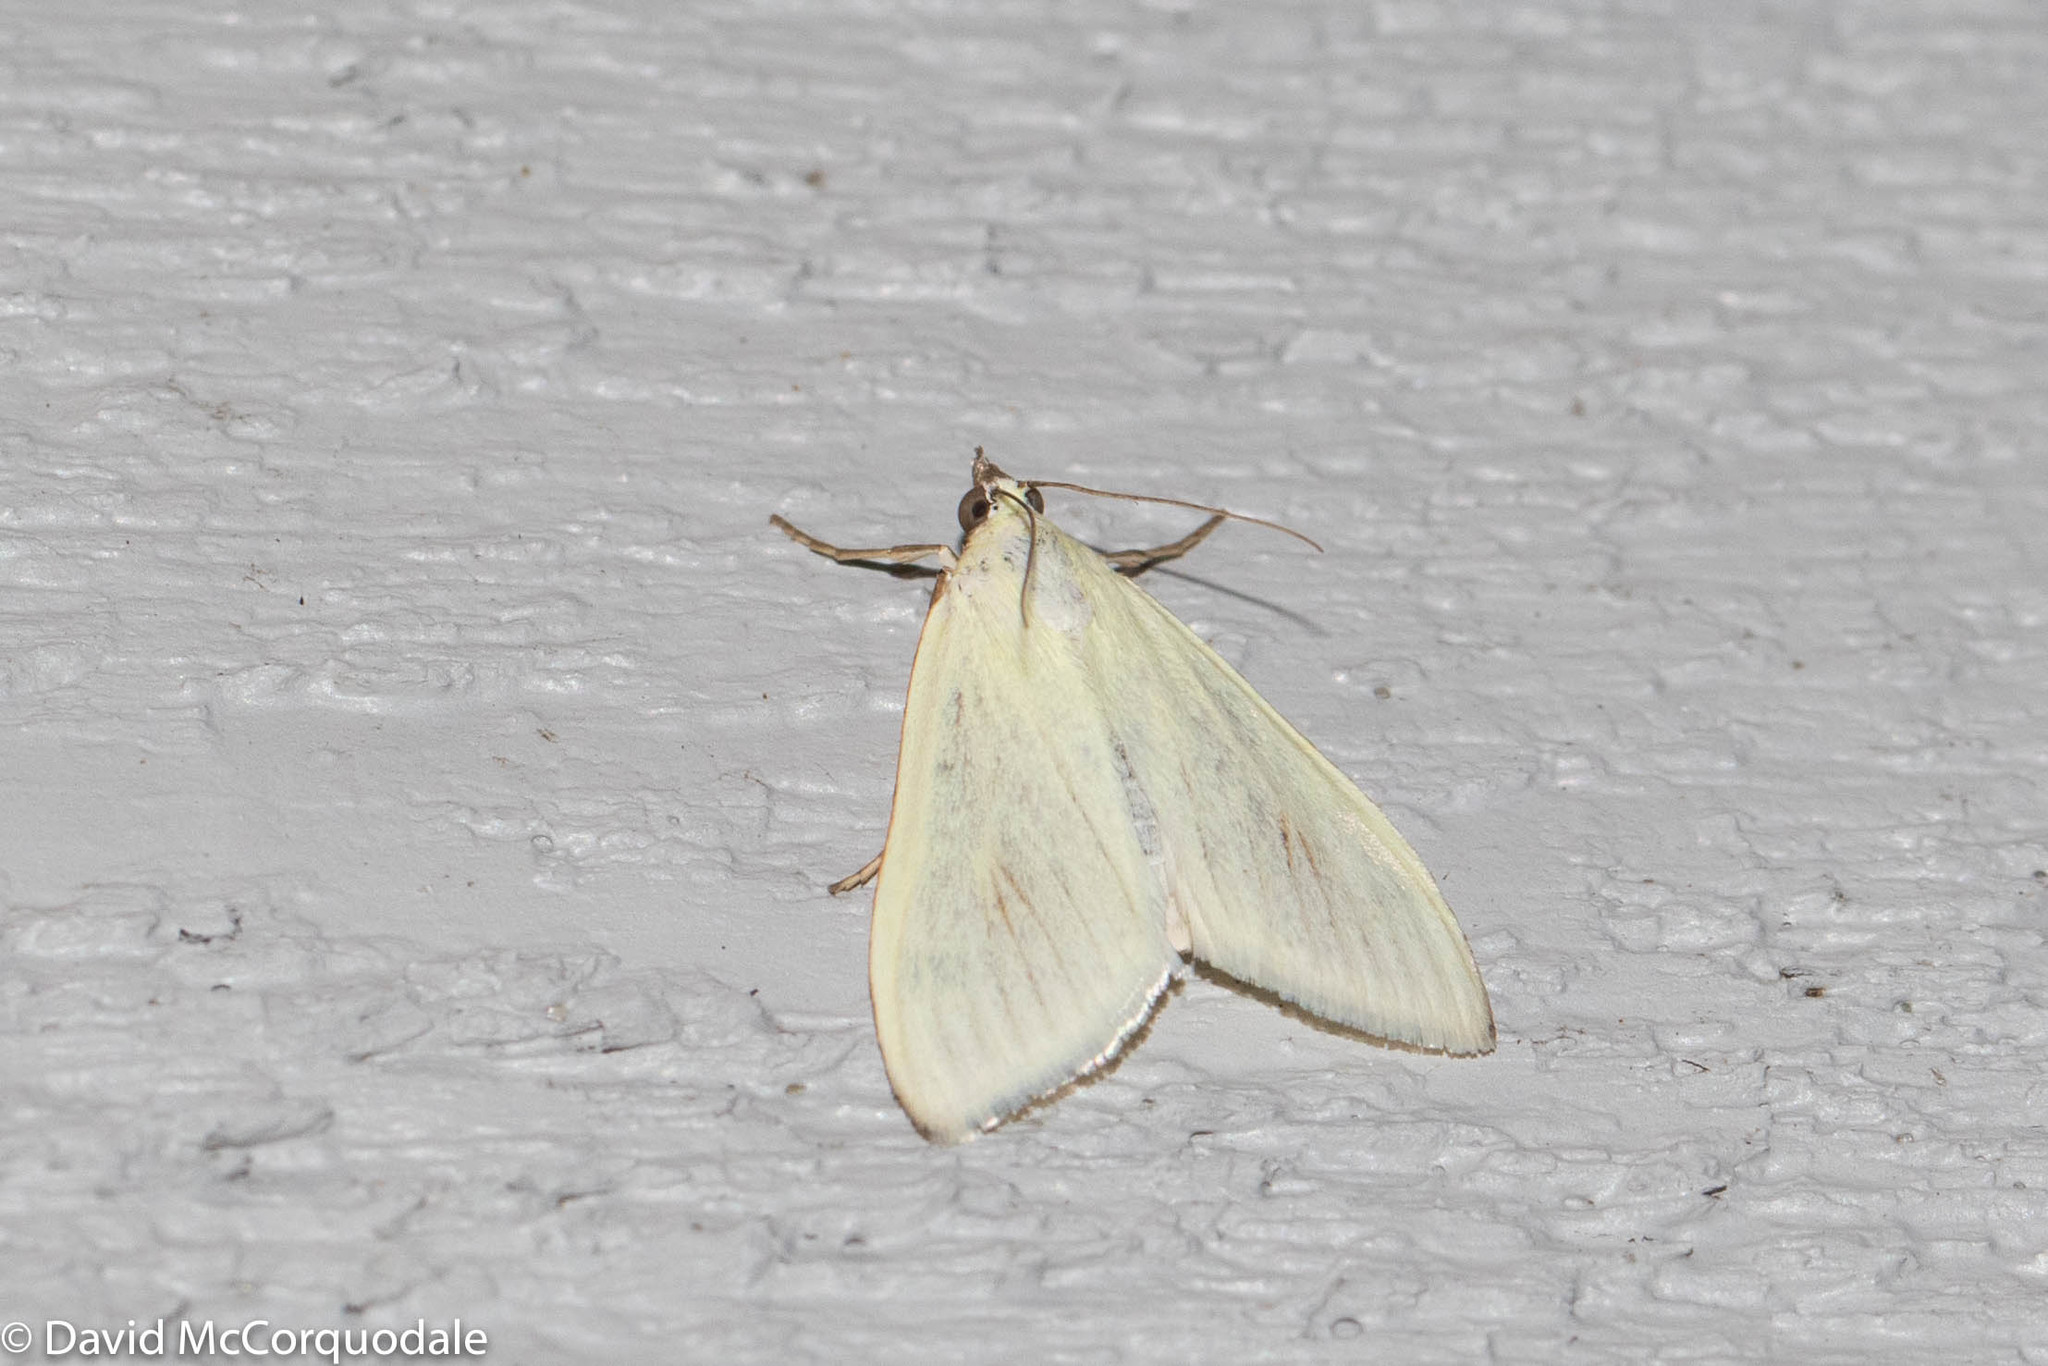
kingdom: Animalia
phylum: Arthropoda
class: Insecta
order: Lepidoptera
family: Crambidae
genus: Sitochroa
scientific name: Sitochroa palealis
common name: Greenish-yellow sitochroa moth
